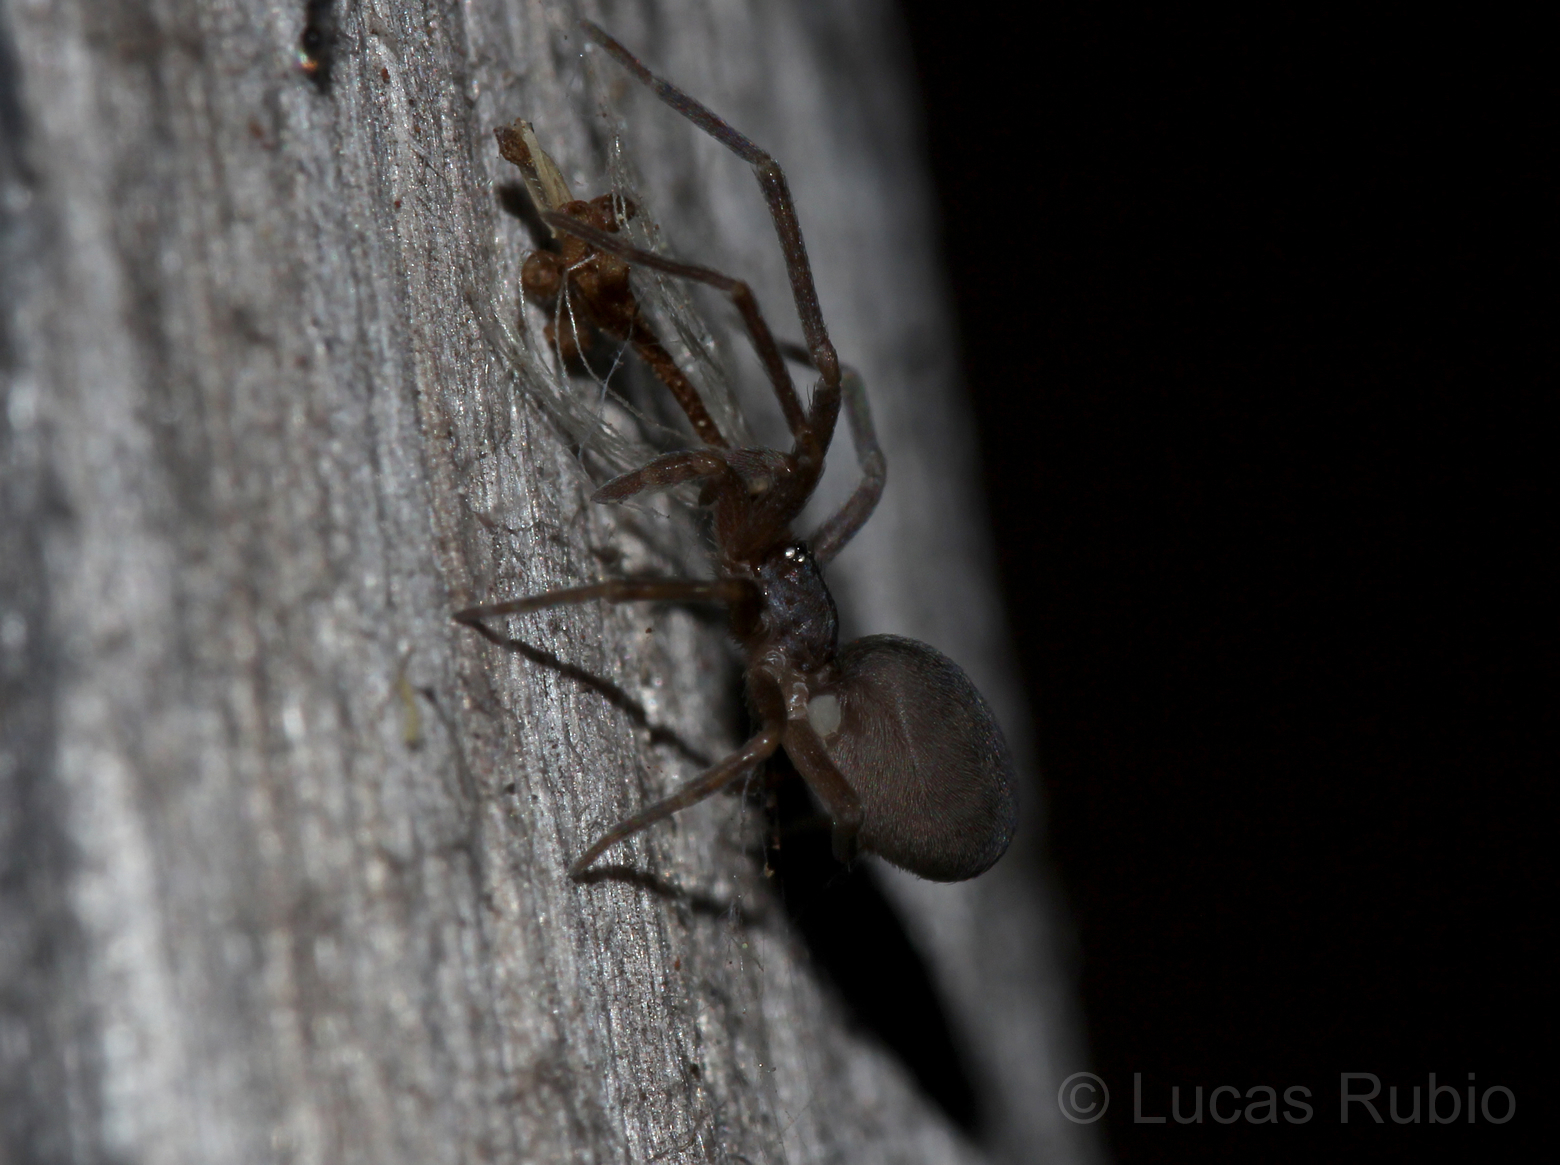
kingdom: Animalia
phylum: Arthropoda
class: Arachnida
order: Araneae
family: Filistatidae
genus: Misionella
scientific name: Misionella mendensis
